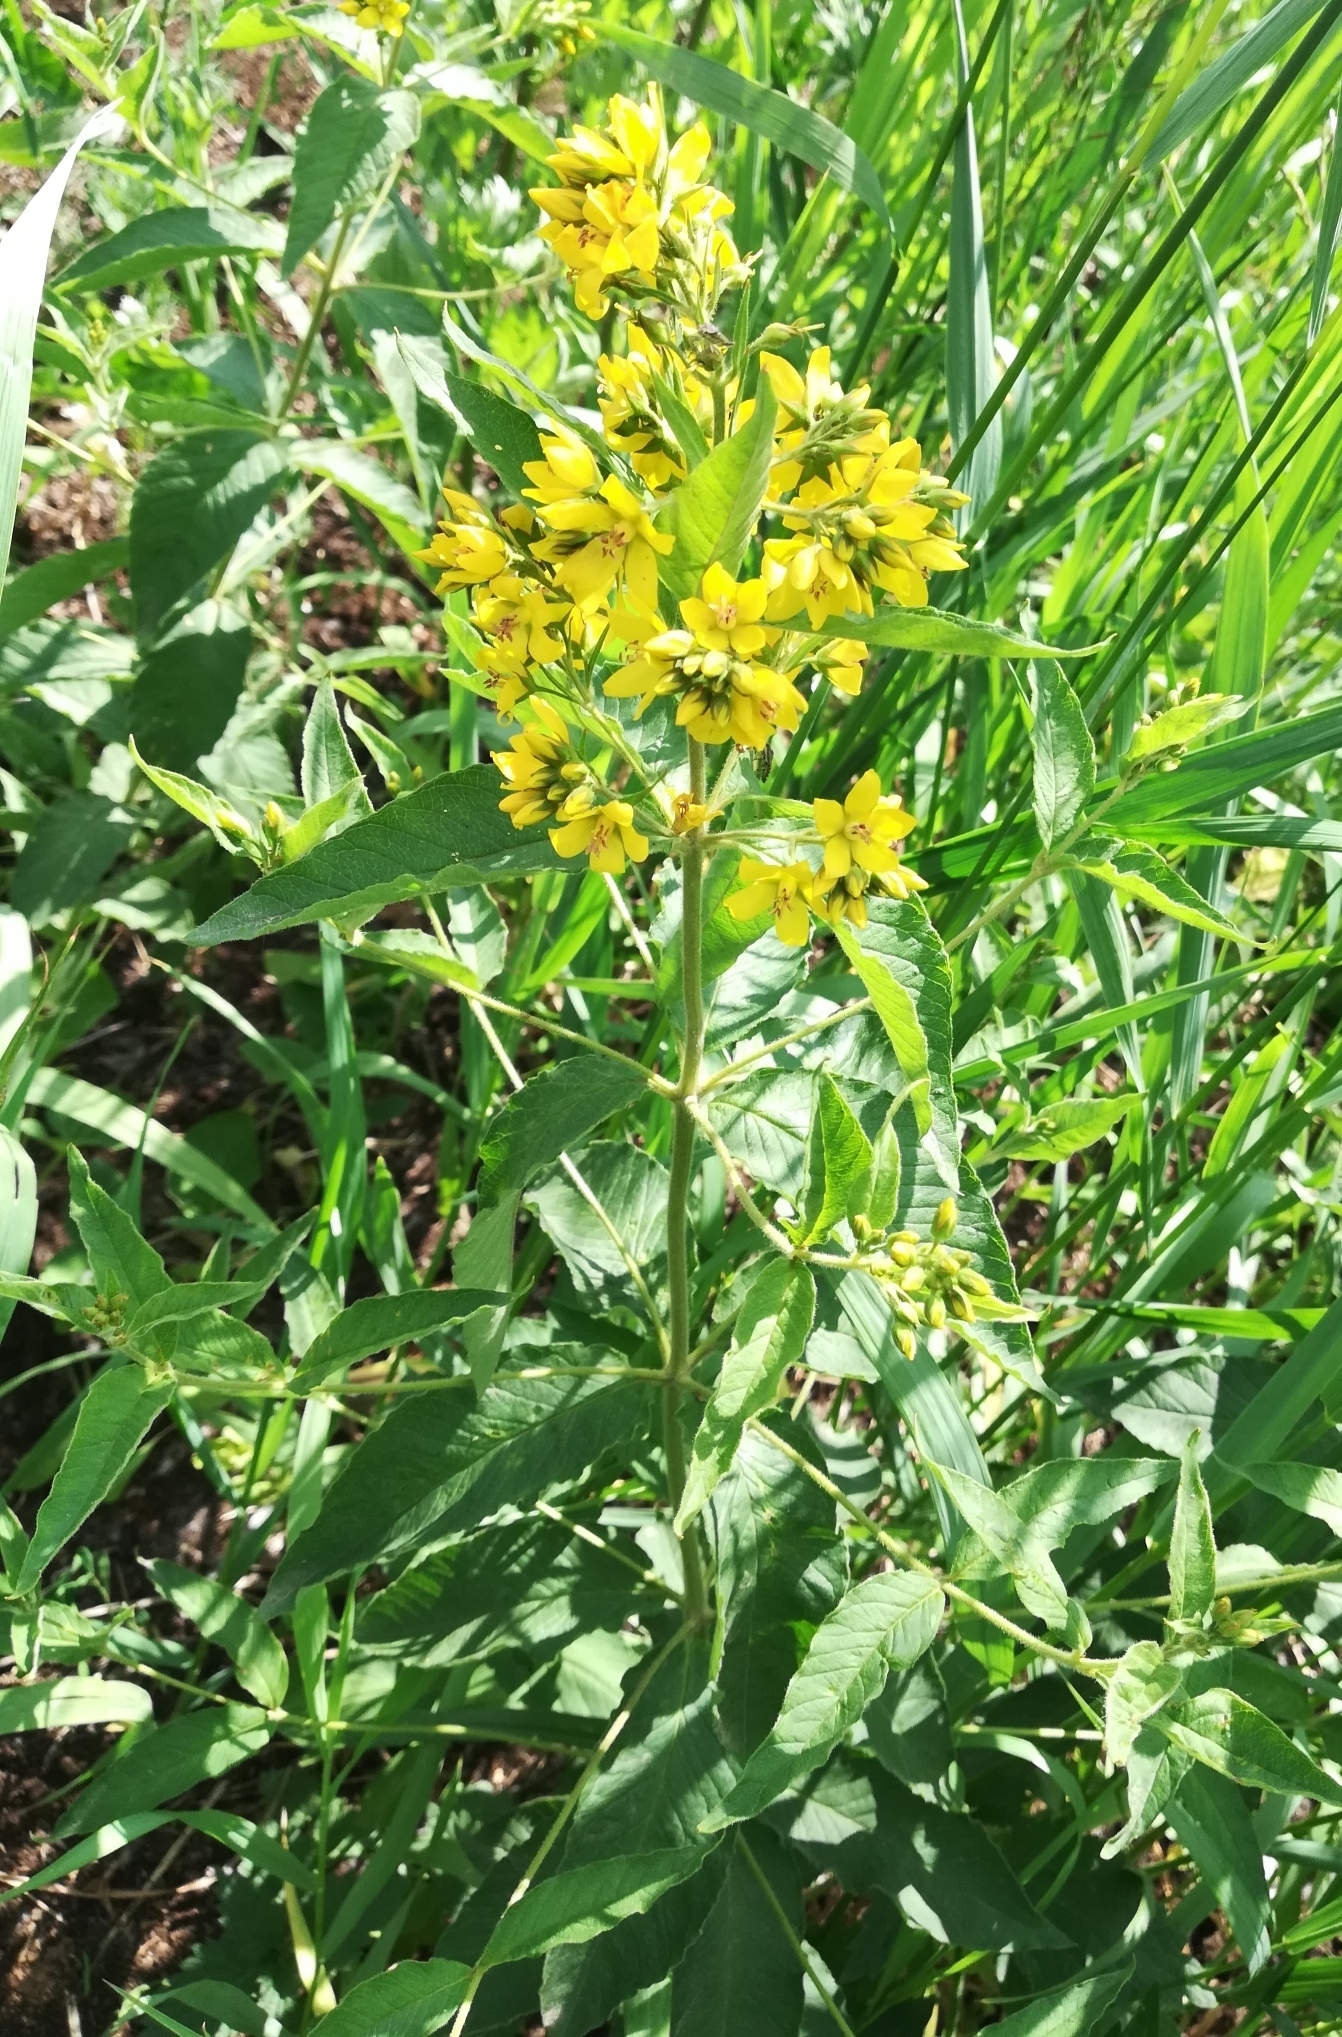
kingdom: Plantae
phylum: Tracheophyta
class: Magnoliopsida
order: Ericales
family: Primulaceae
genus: Lysimachia
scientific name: Lysimachia vulgaris
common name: Yellow loosestrife
